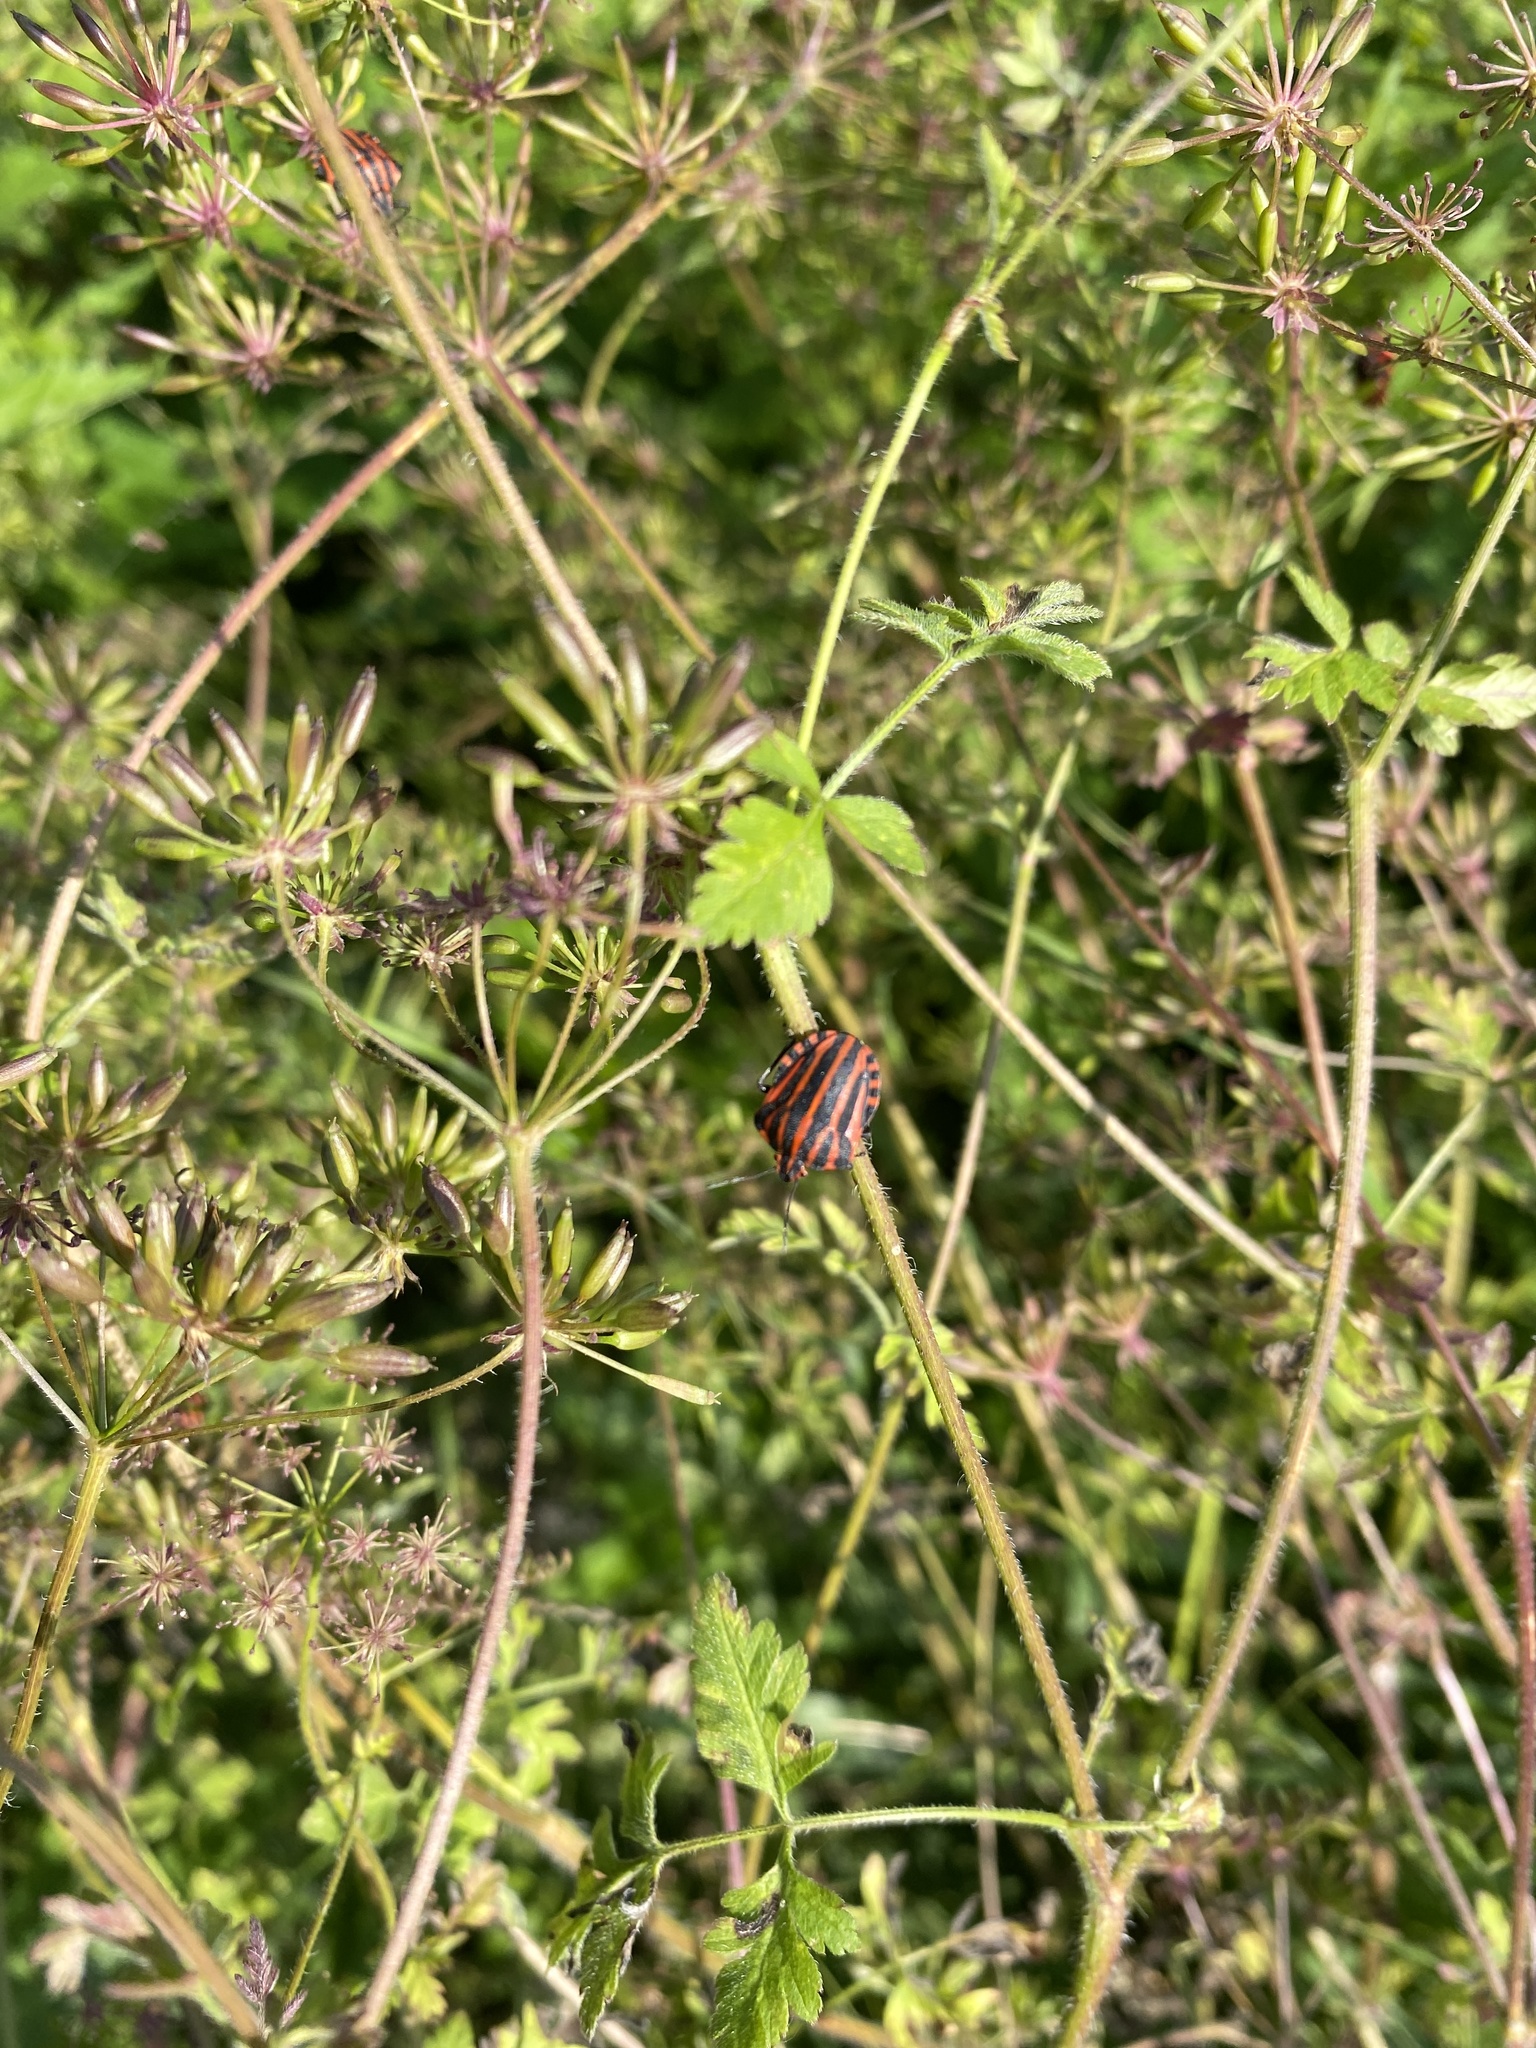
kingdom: Animalia
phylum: Arthropoda
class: Insecta
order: Hemiptera
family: Pentatomidae
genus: Graphosoma
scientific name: Graphosoma italicum
